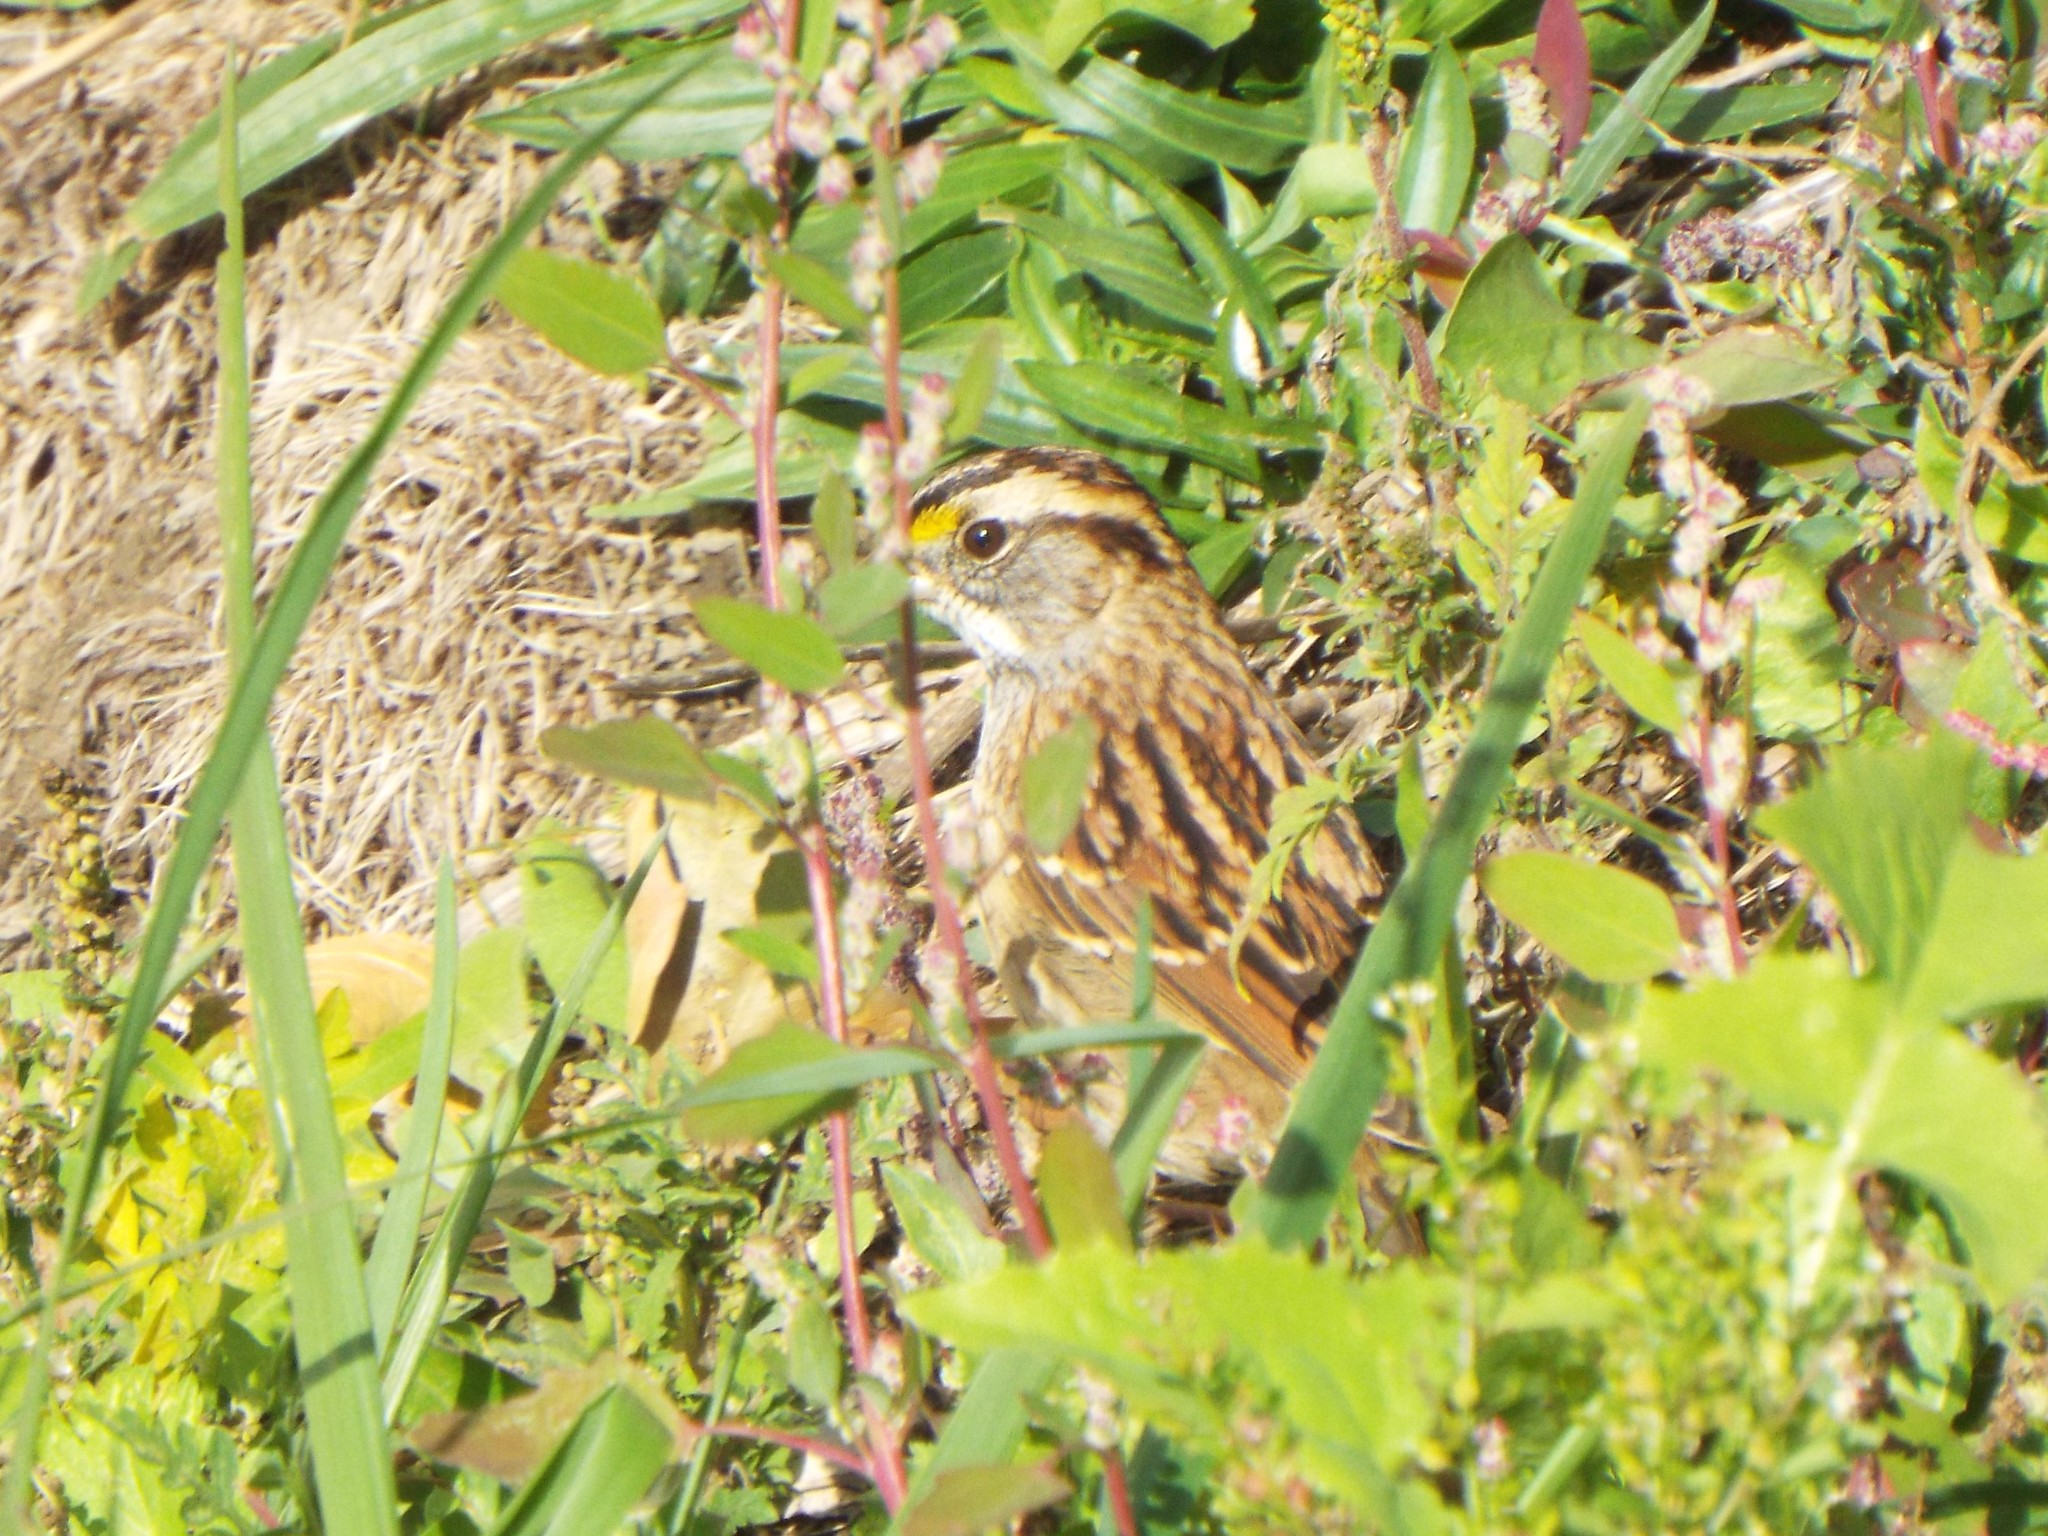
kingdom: Animalia
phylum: Chordata
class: Aves
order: Passeriformes
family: Passerellidae
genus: Zonotrichia
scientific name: Zonotrichia albicollis
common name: White-throated sparrow
